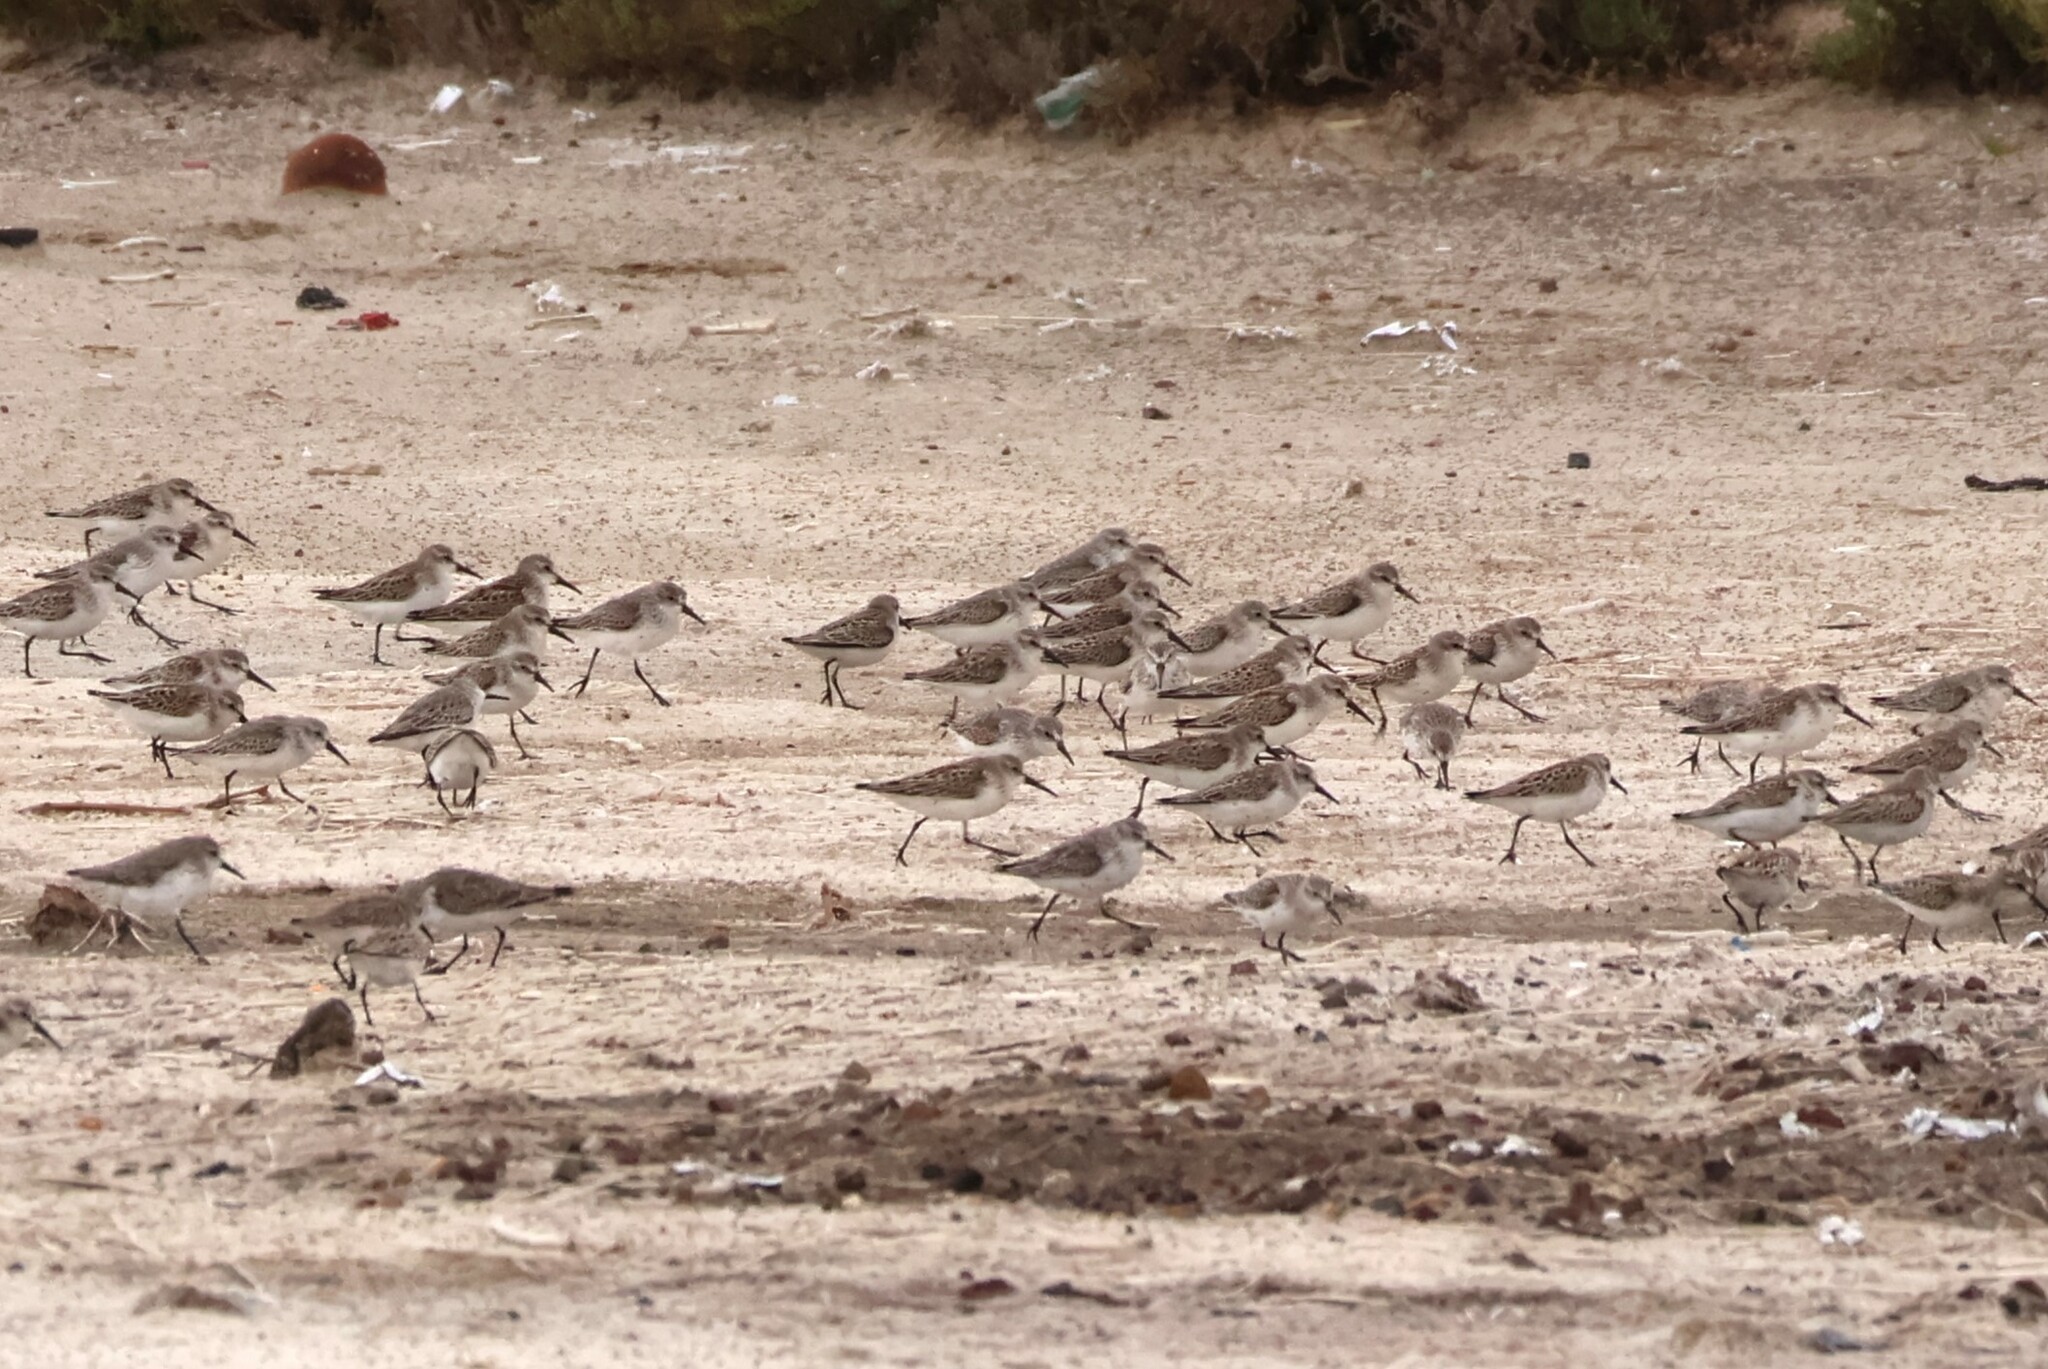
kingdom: Animalia
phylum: Chordata
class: Aves
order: Charadriiformes
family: Scolopacidae
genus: Calidris
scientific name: Calidris mauri
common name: Western sandpiper
